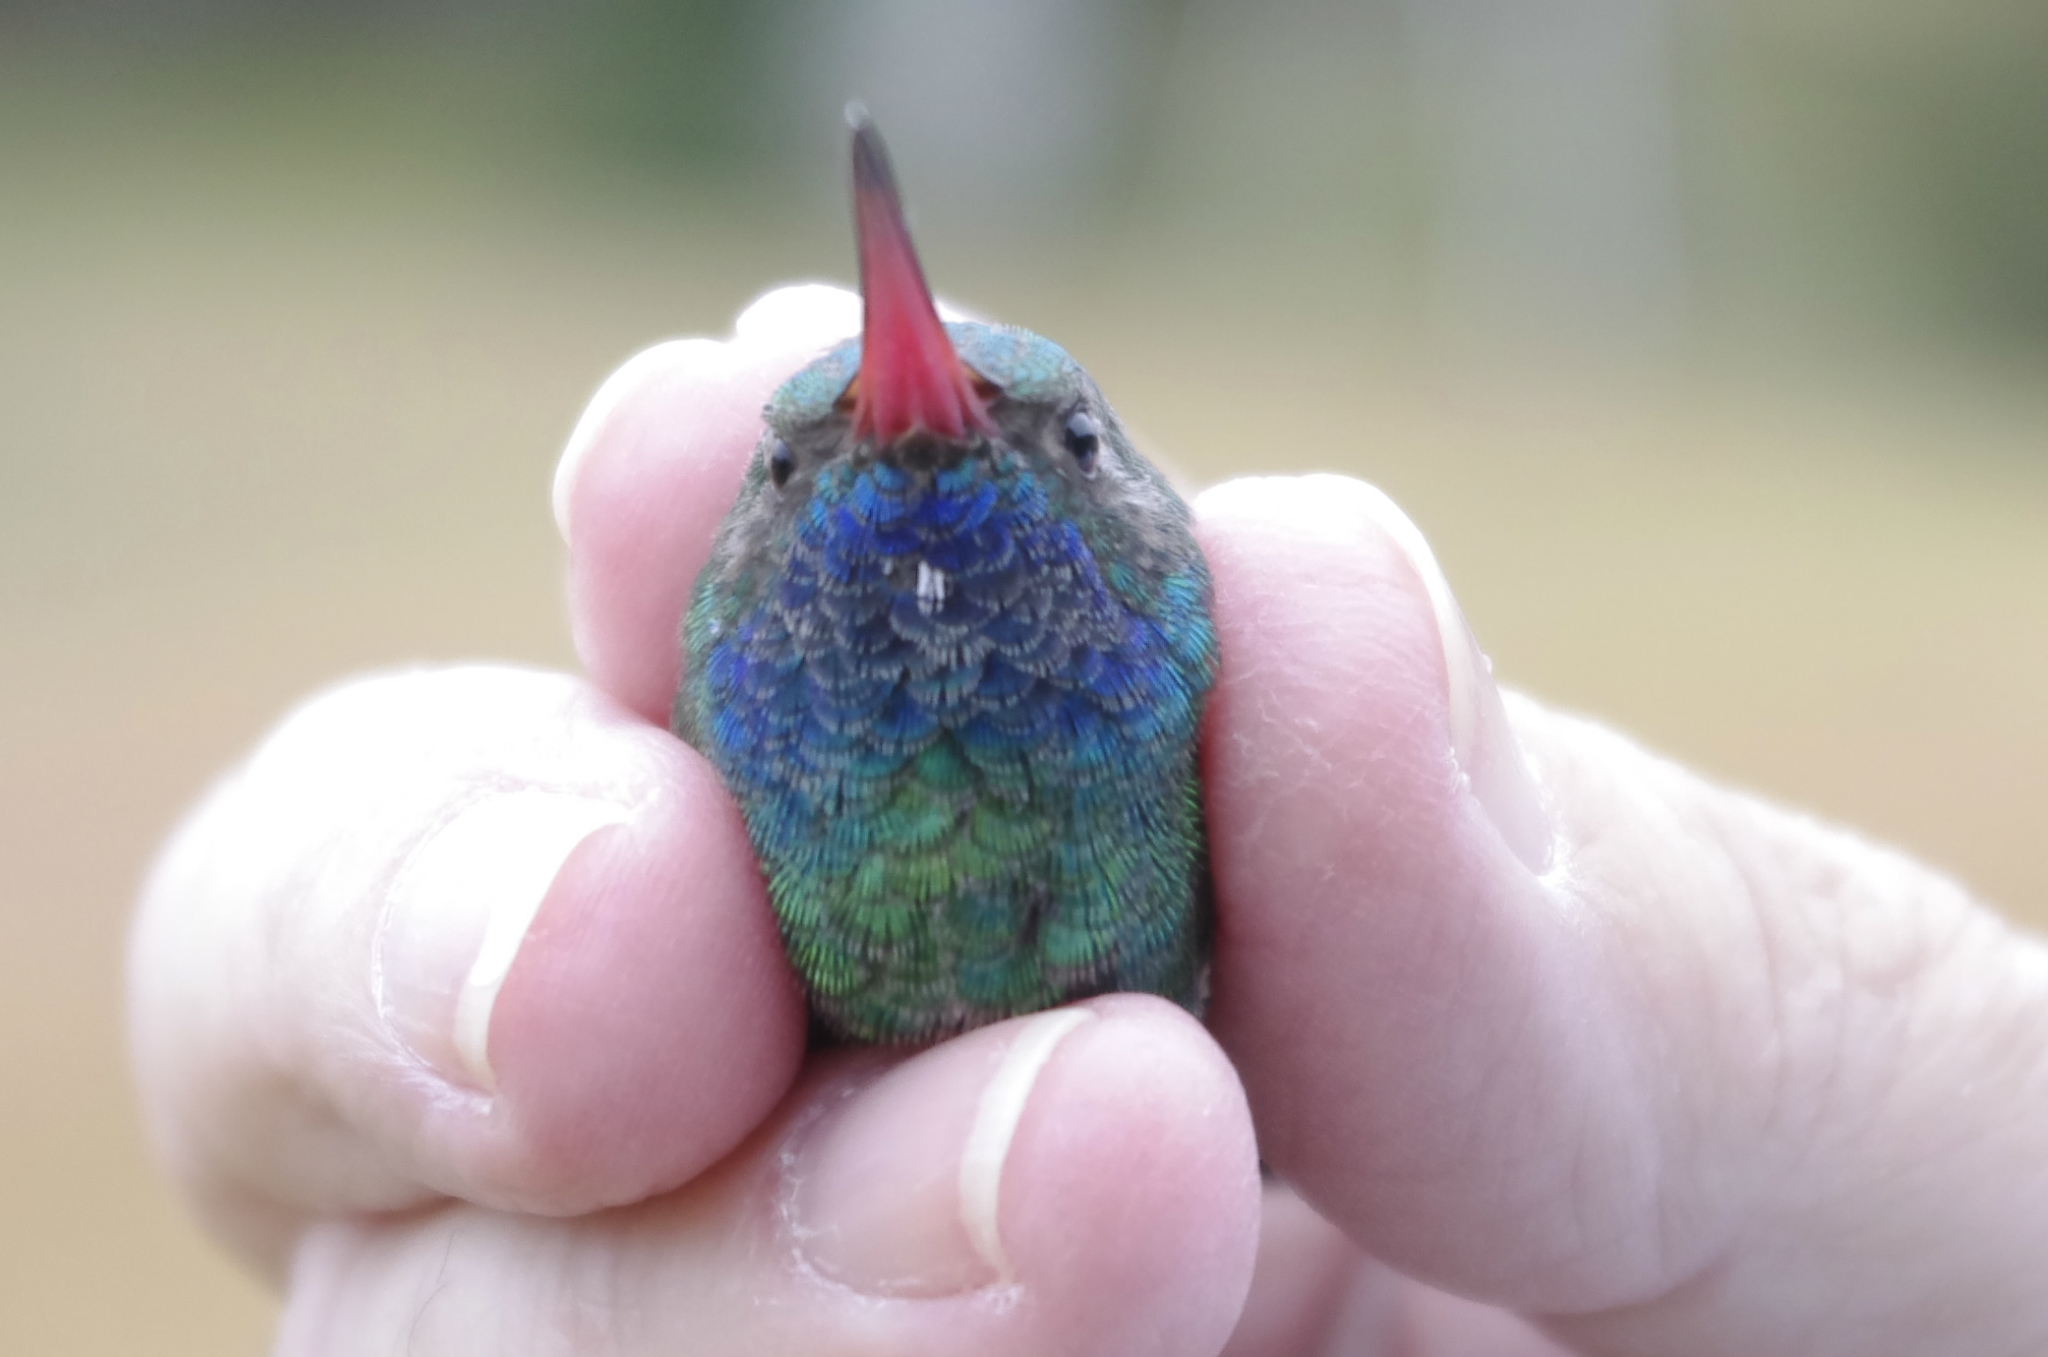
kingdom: Animalia
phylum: Chordata
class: Aves
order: Apodiformes
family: Trochilidae
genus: Cynanthus
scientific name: Cynanthus latirostris
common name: Broad-billed hummingbird
